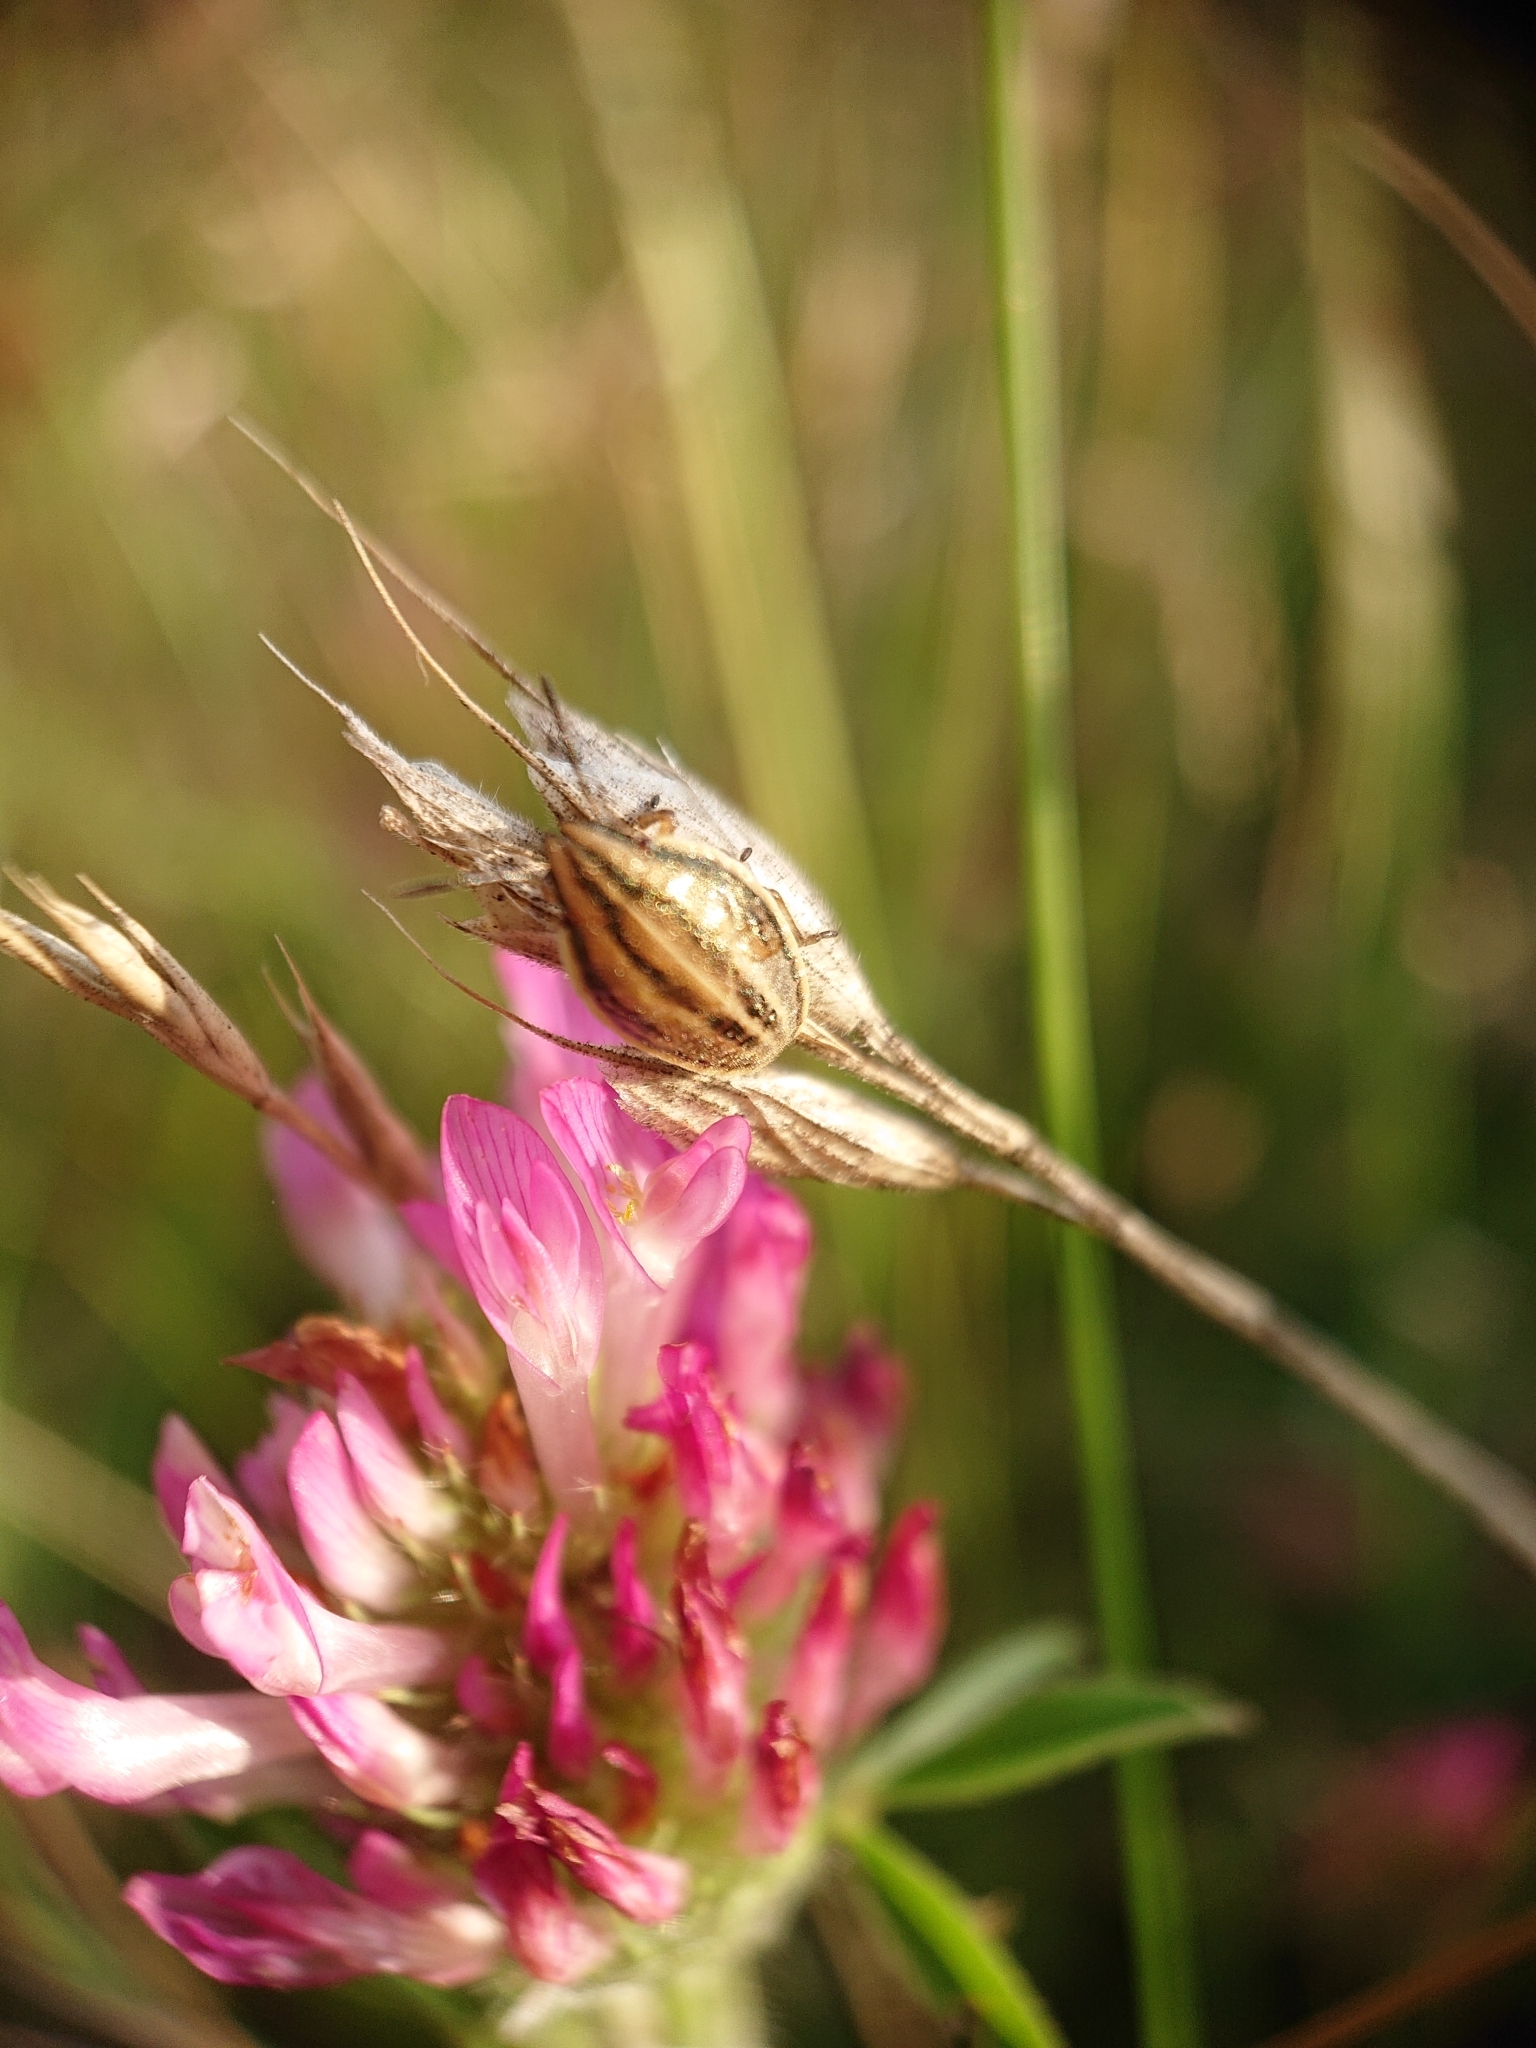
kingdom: Animalia
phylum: Arthropoda
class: Insecta
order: Hemiptera
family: Pentatomidae
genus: Aelia
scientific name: Aelia acuminata
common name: Bishop's mitre
